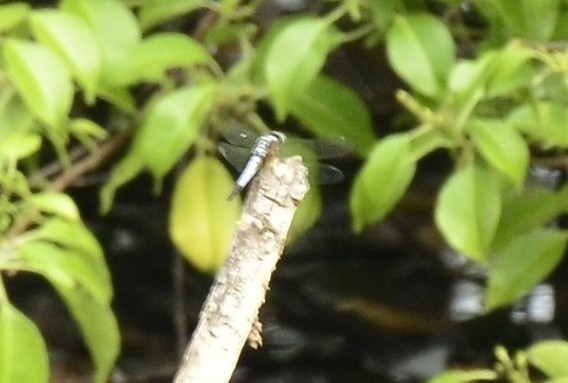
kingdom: Animalia
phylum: Arthropoda
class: Insecta
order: Odonata
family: Libellulidae
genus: Brachydiplax
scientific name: Brachydiplax chalybea
